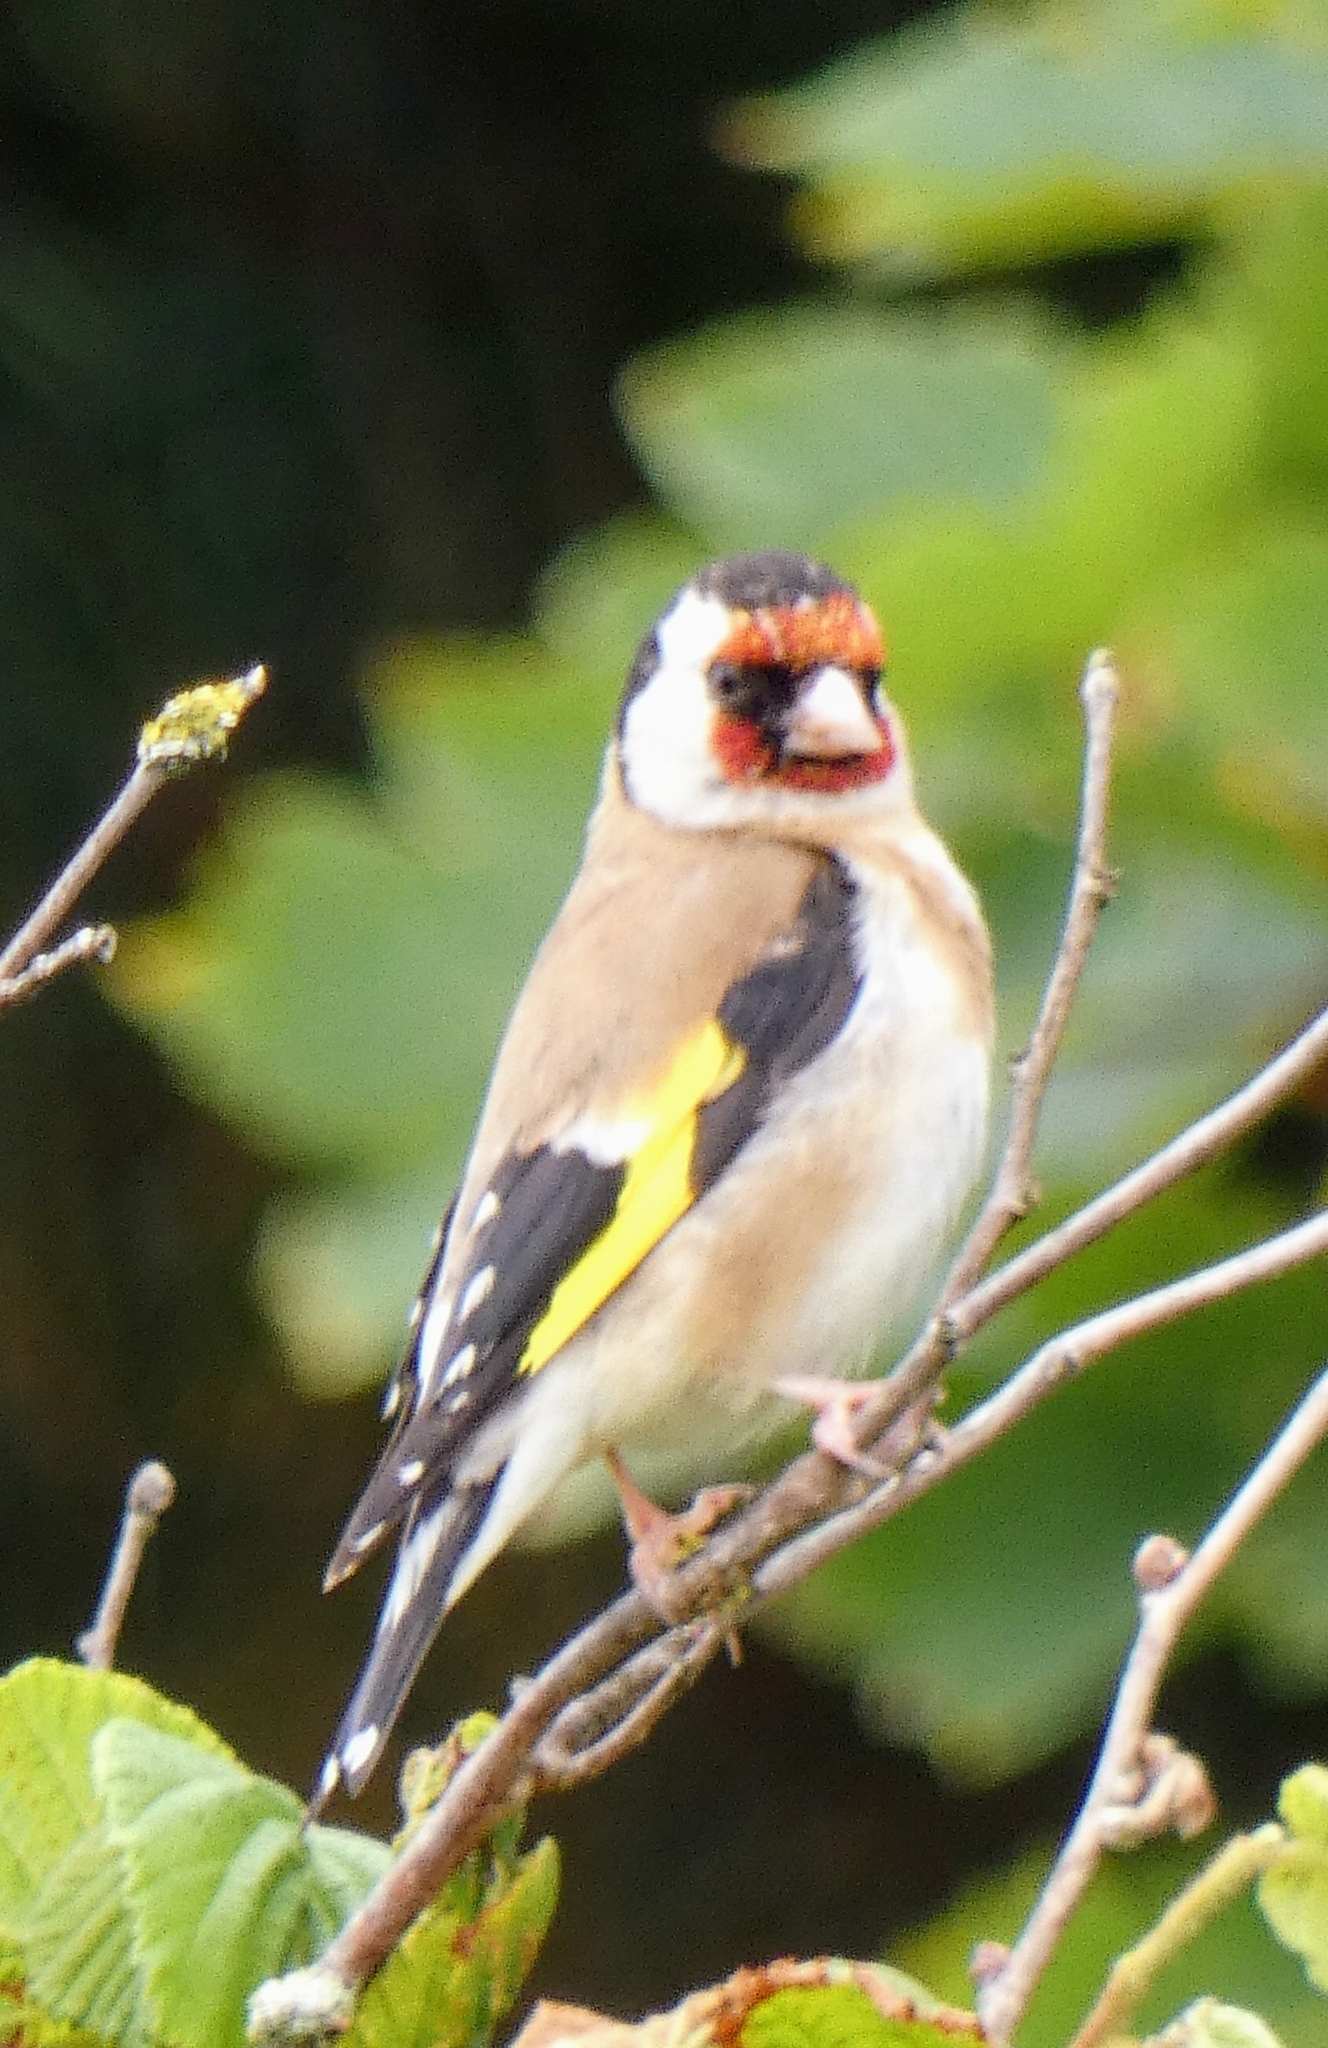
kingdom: Animalia
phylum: Chordata
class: Aves
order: Passeriformes
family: Fringillidae
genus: Carduelis
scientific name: Carduelis carduelis
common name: European goldfinch
